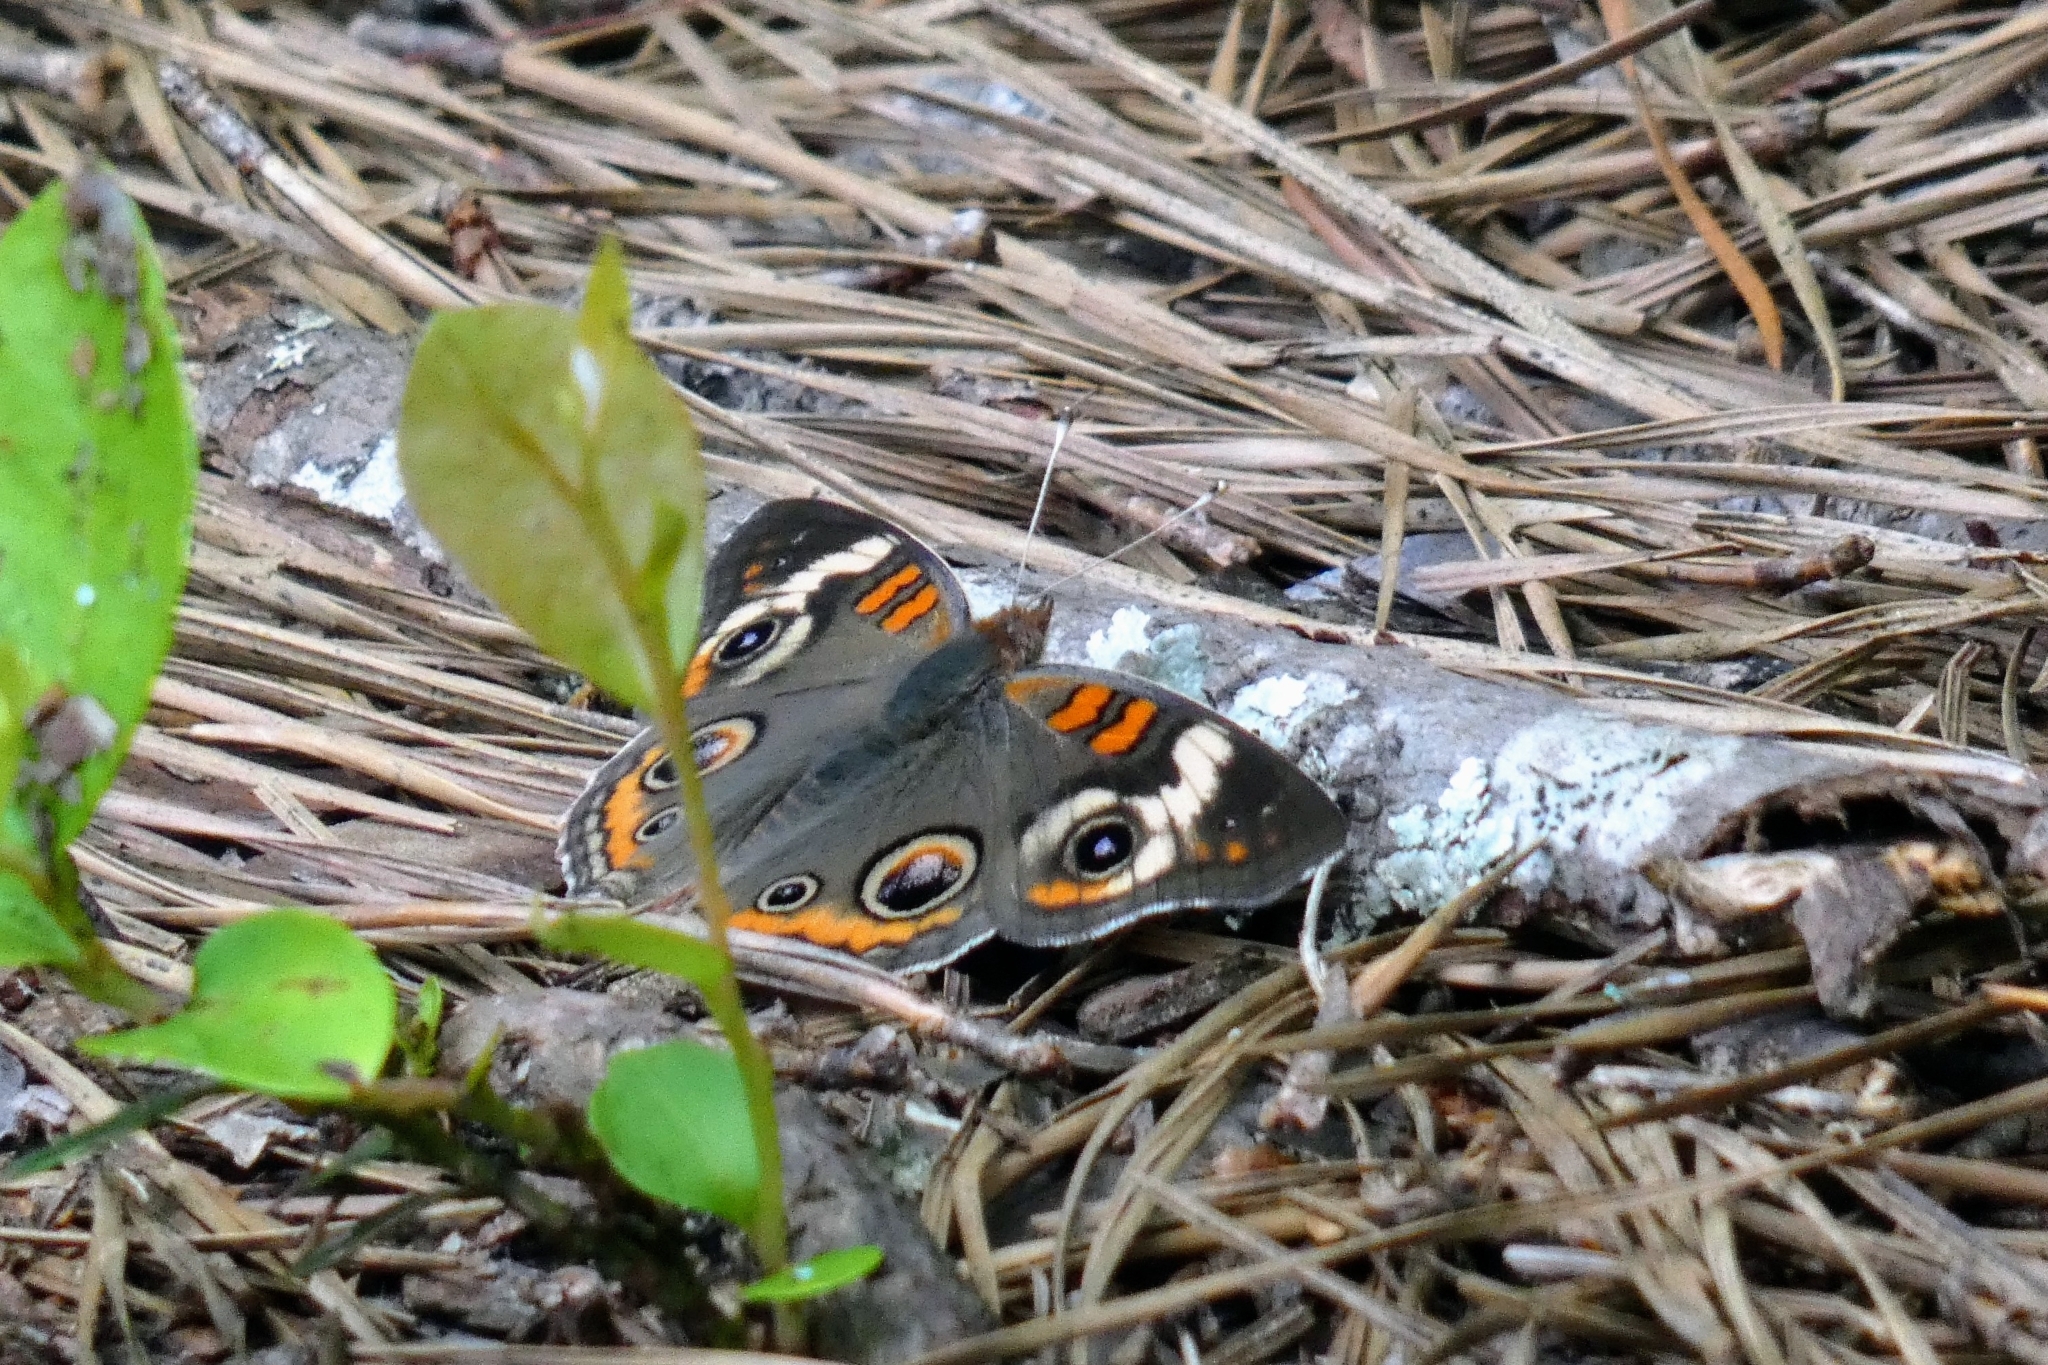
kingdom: Animalia
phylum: Arthropoda
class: Insecta
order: Lepidoptera
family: Nymphalidae
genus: Junonia
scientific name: Junonia coenia
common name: Common buckeye
